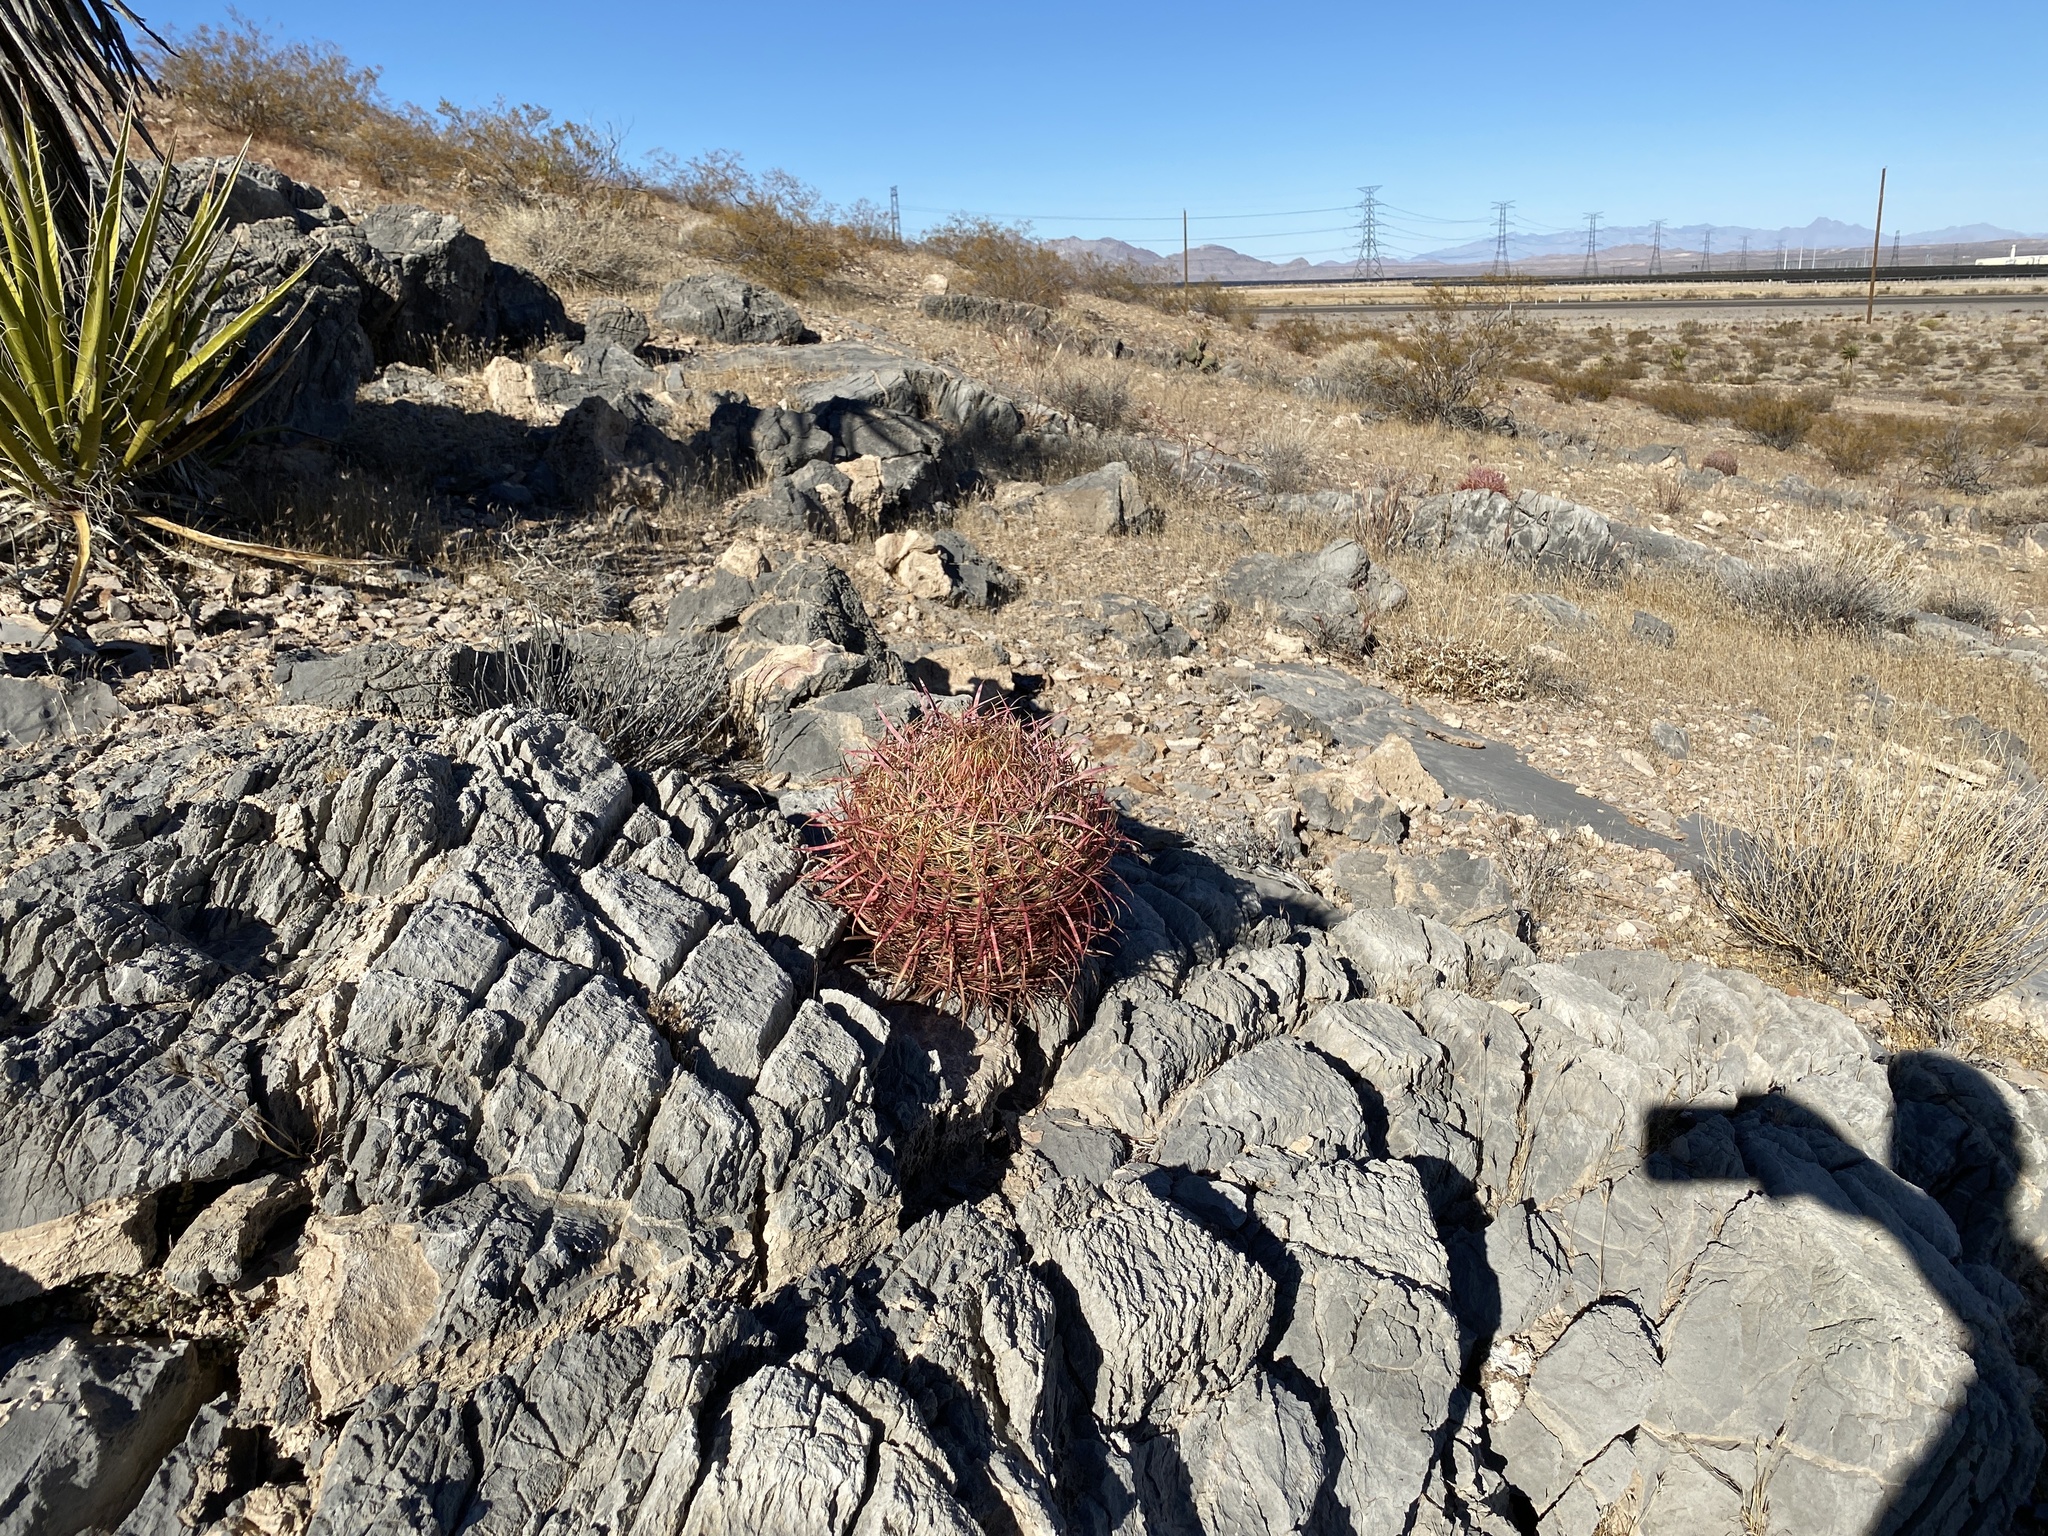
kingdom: Plantae
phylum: Tracheophyta
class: Magnoliopsida
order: Caryophyllales
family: Cactaceae
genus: Ferocactus
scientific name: Ferocactus cylindraceus
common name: California barrel cactus
